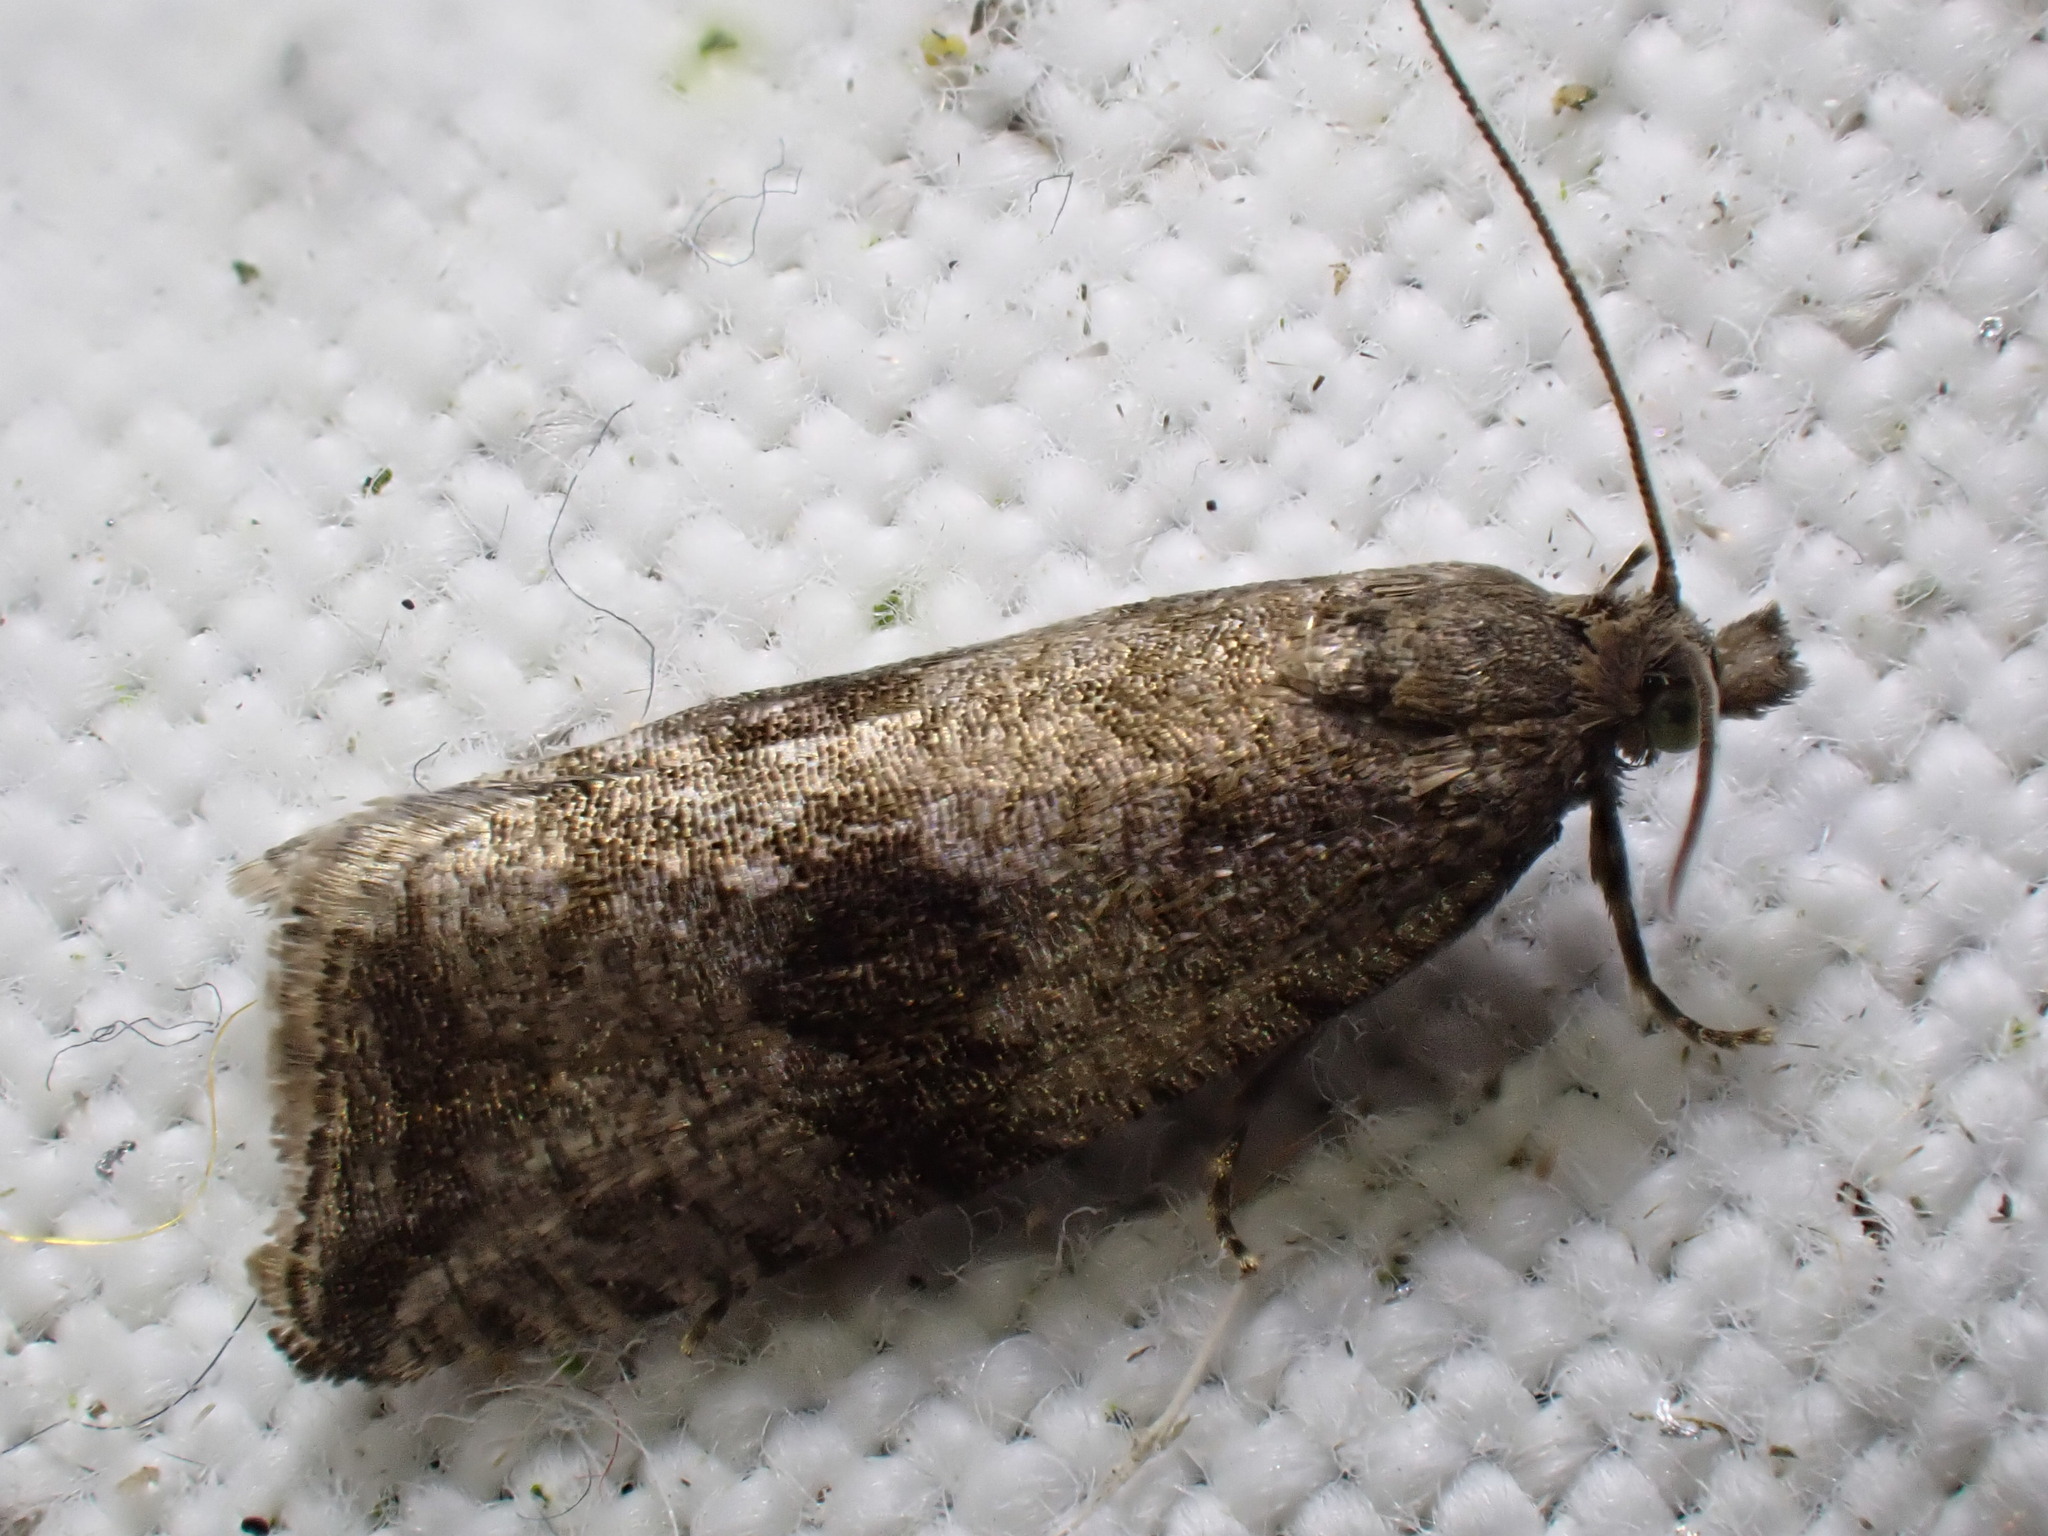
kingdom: Animalia
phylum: Arthropoda
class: Insecta
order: Lepidoptera
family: Tortricidae
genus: Celypha
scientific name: Celypha striana
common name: Barred marble
